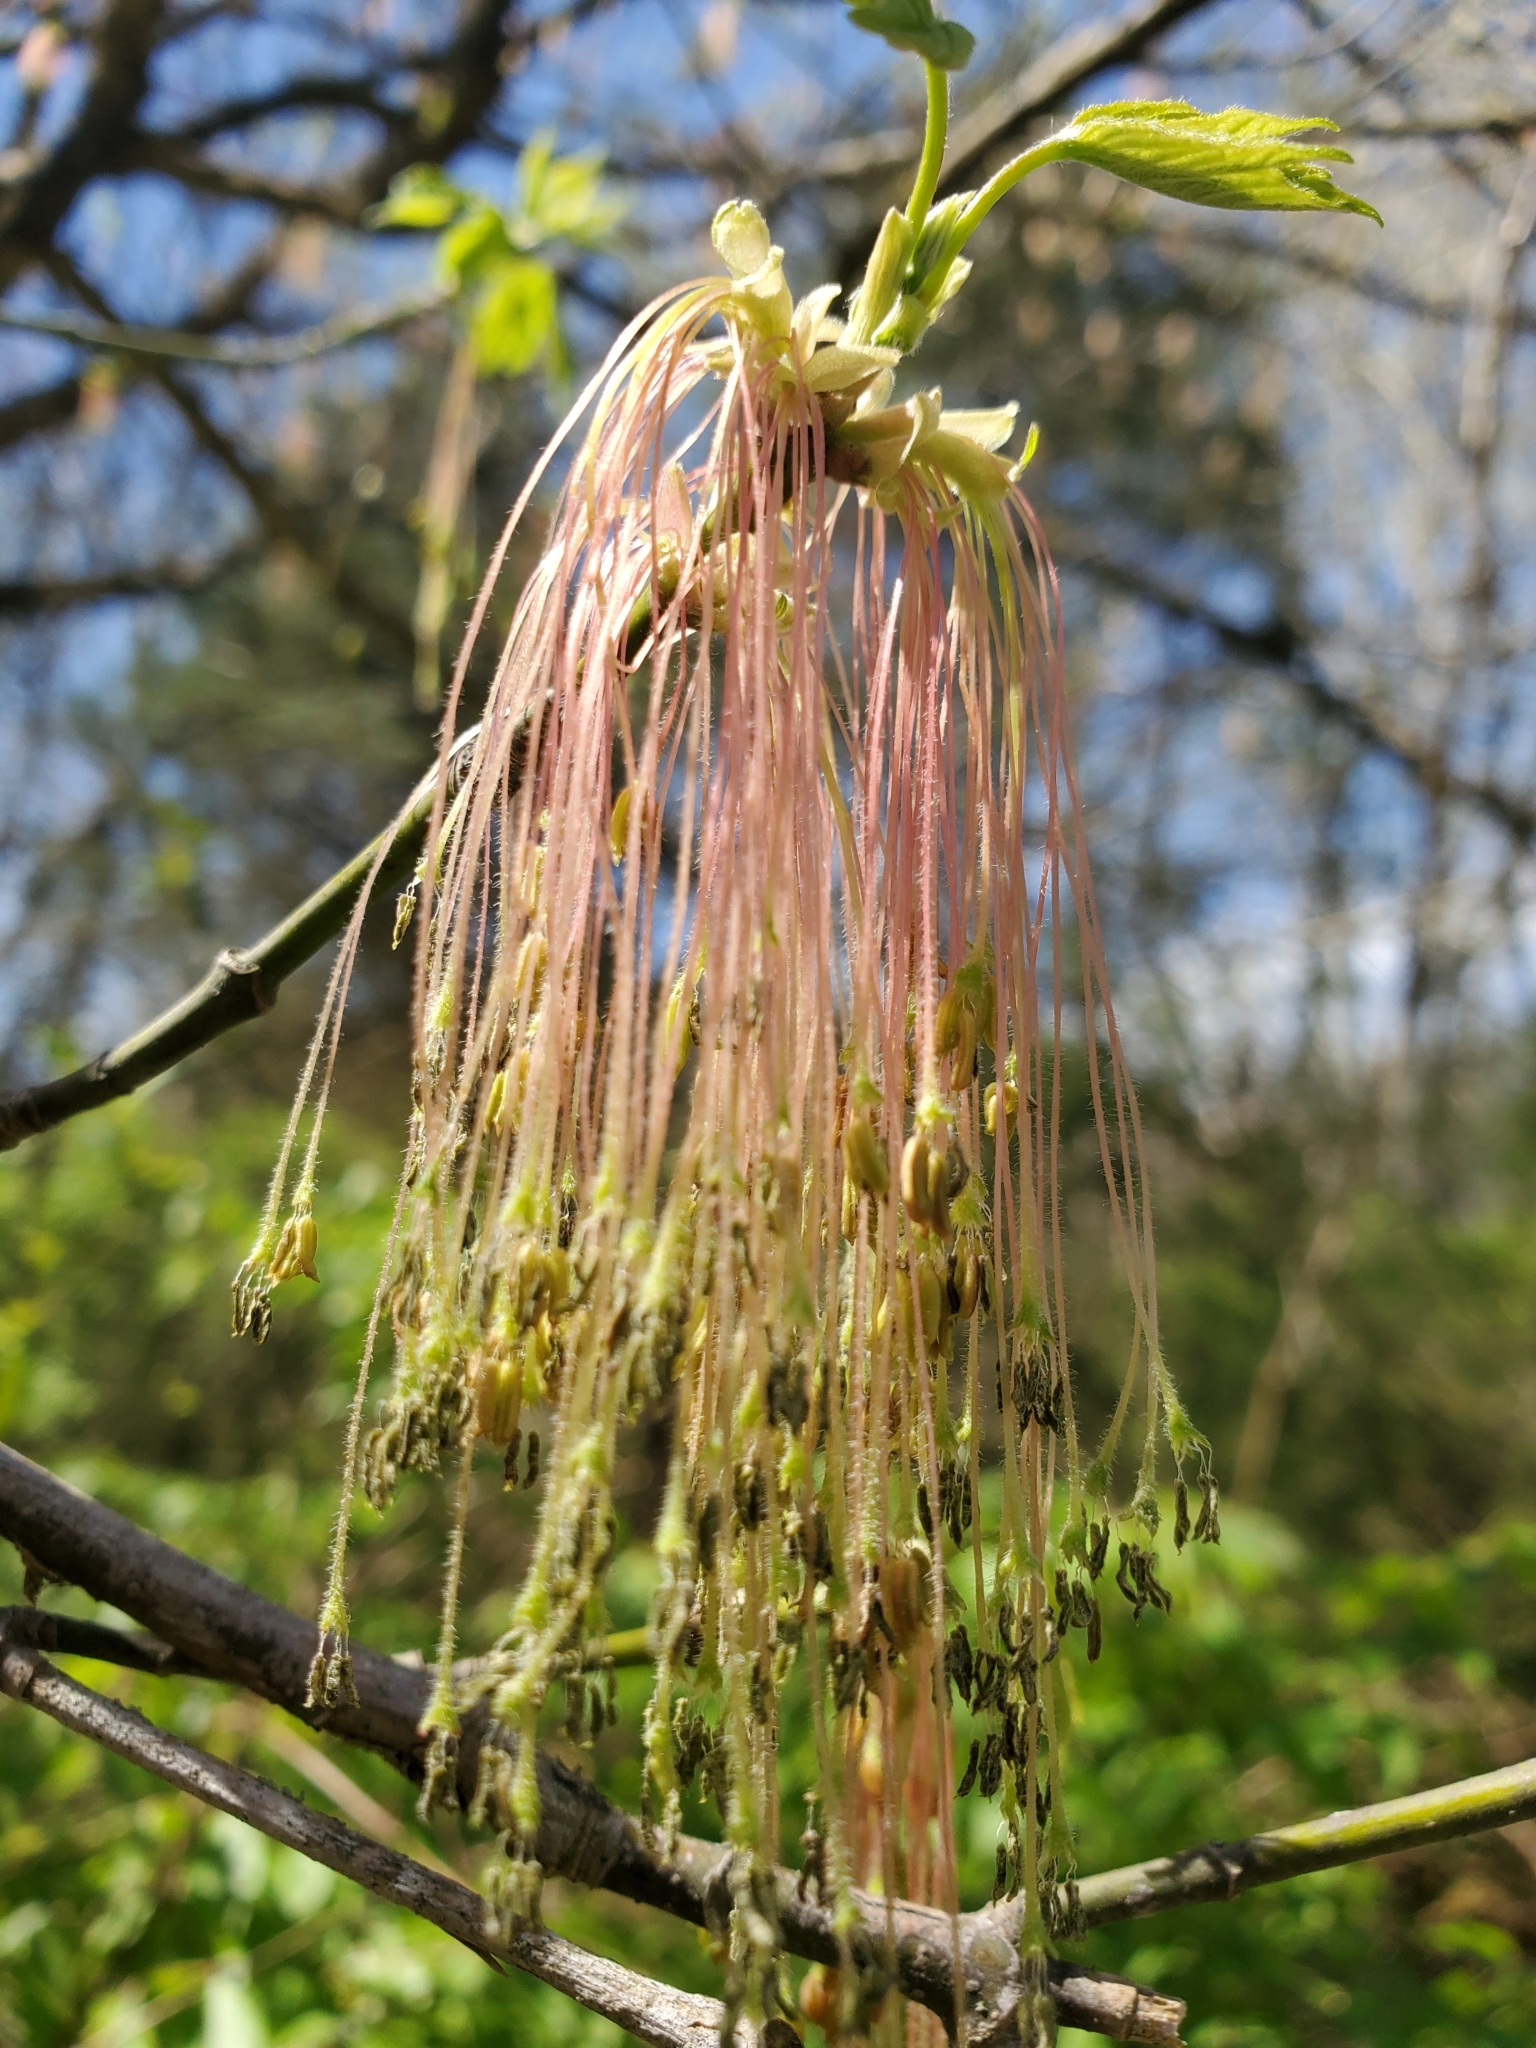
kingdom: Plantae
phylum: Tracheophyta
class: Magnoliopsida
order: Sapindales
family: Sapindaceae
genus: Acer
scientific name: Acer negundo
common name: Ashleaf maple
